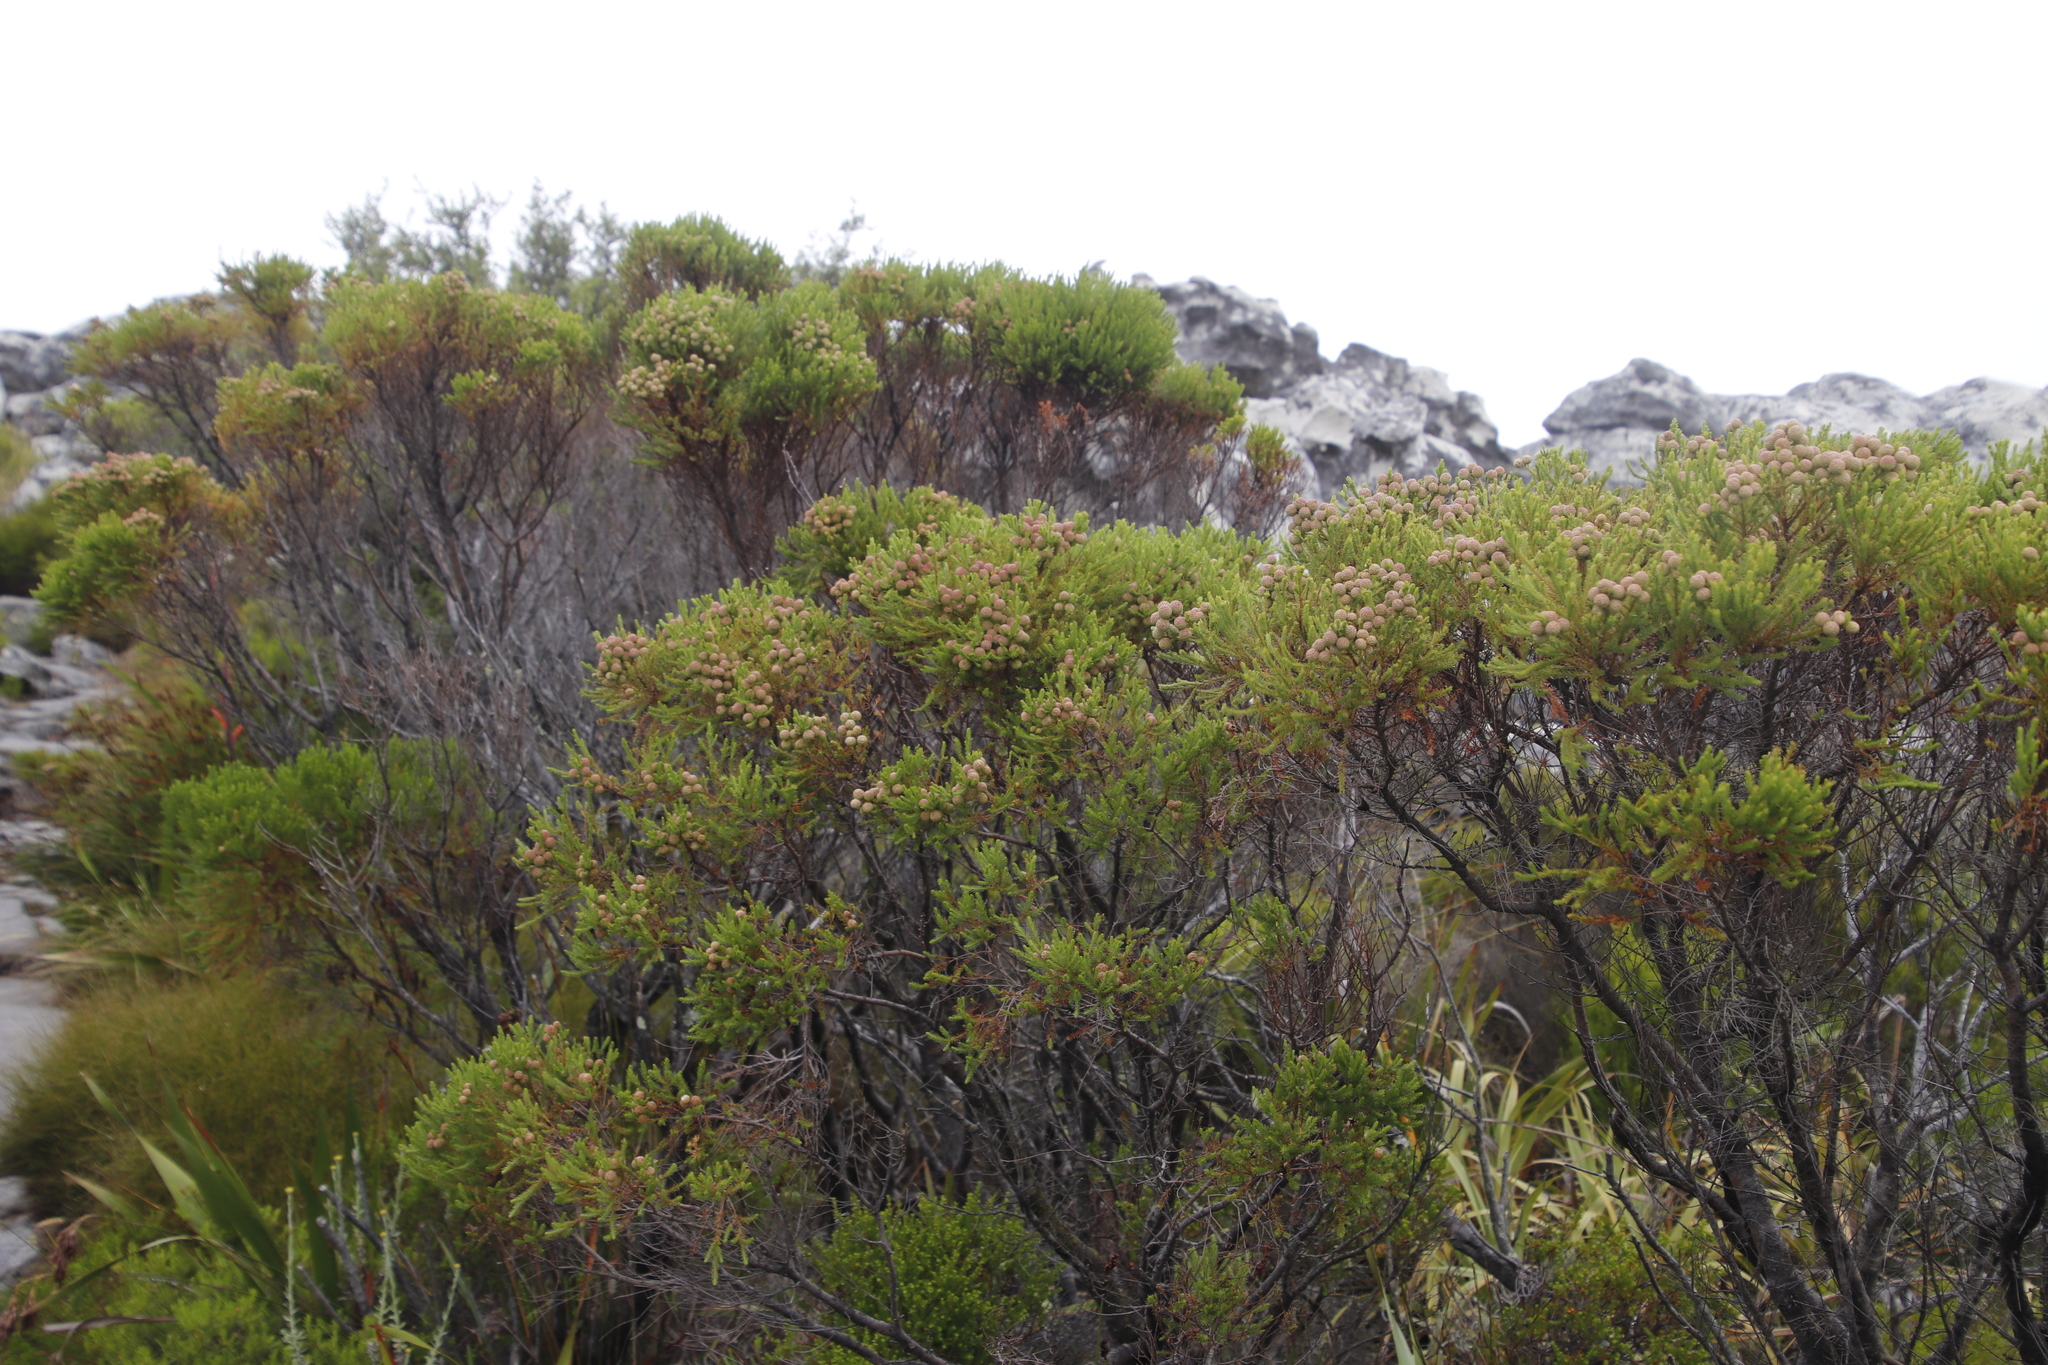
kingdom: Plantae
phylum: Tracheophyta
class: Magnoliopsida
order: Bruniales
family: Bruniaceae
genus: Berzelia
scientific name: Berzelia lanuginosa
